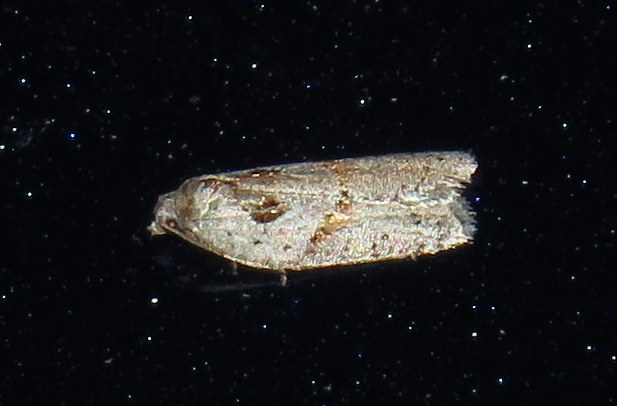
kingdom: Animalia
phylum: Arthropoda
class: Insecta
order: Lepidoptera
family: Tortricidae
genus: Acleris
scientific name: Acleris maculidorsana
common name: Stained-back leafroller moth
